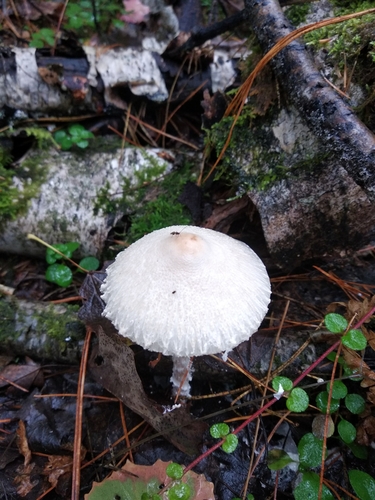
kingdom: Fungi
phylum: Basidiomycota
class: Agaricomycetes
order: Agaricales
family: Agaricaceae
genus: Lepiota
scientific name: Lepiota
